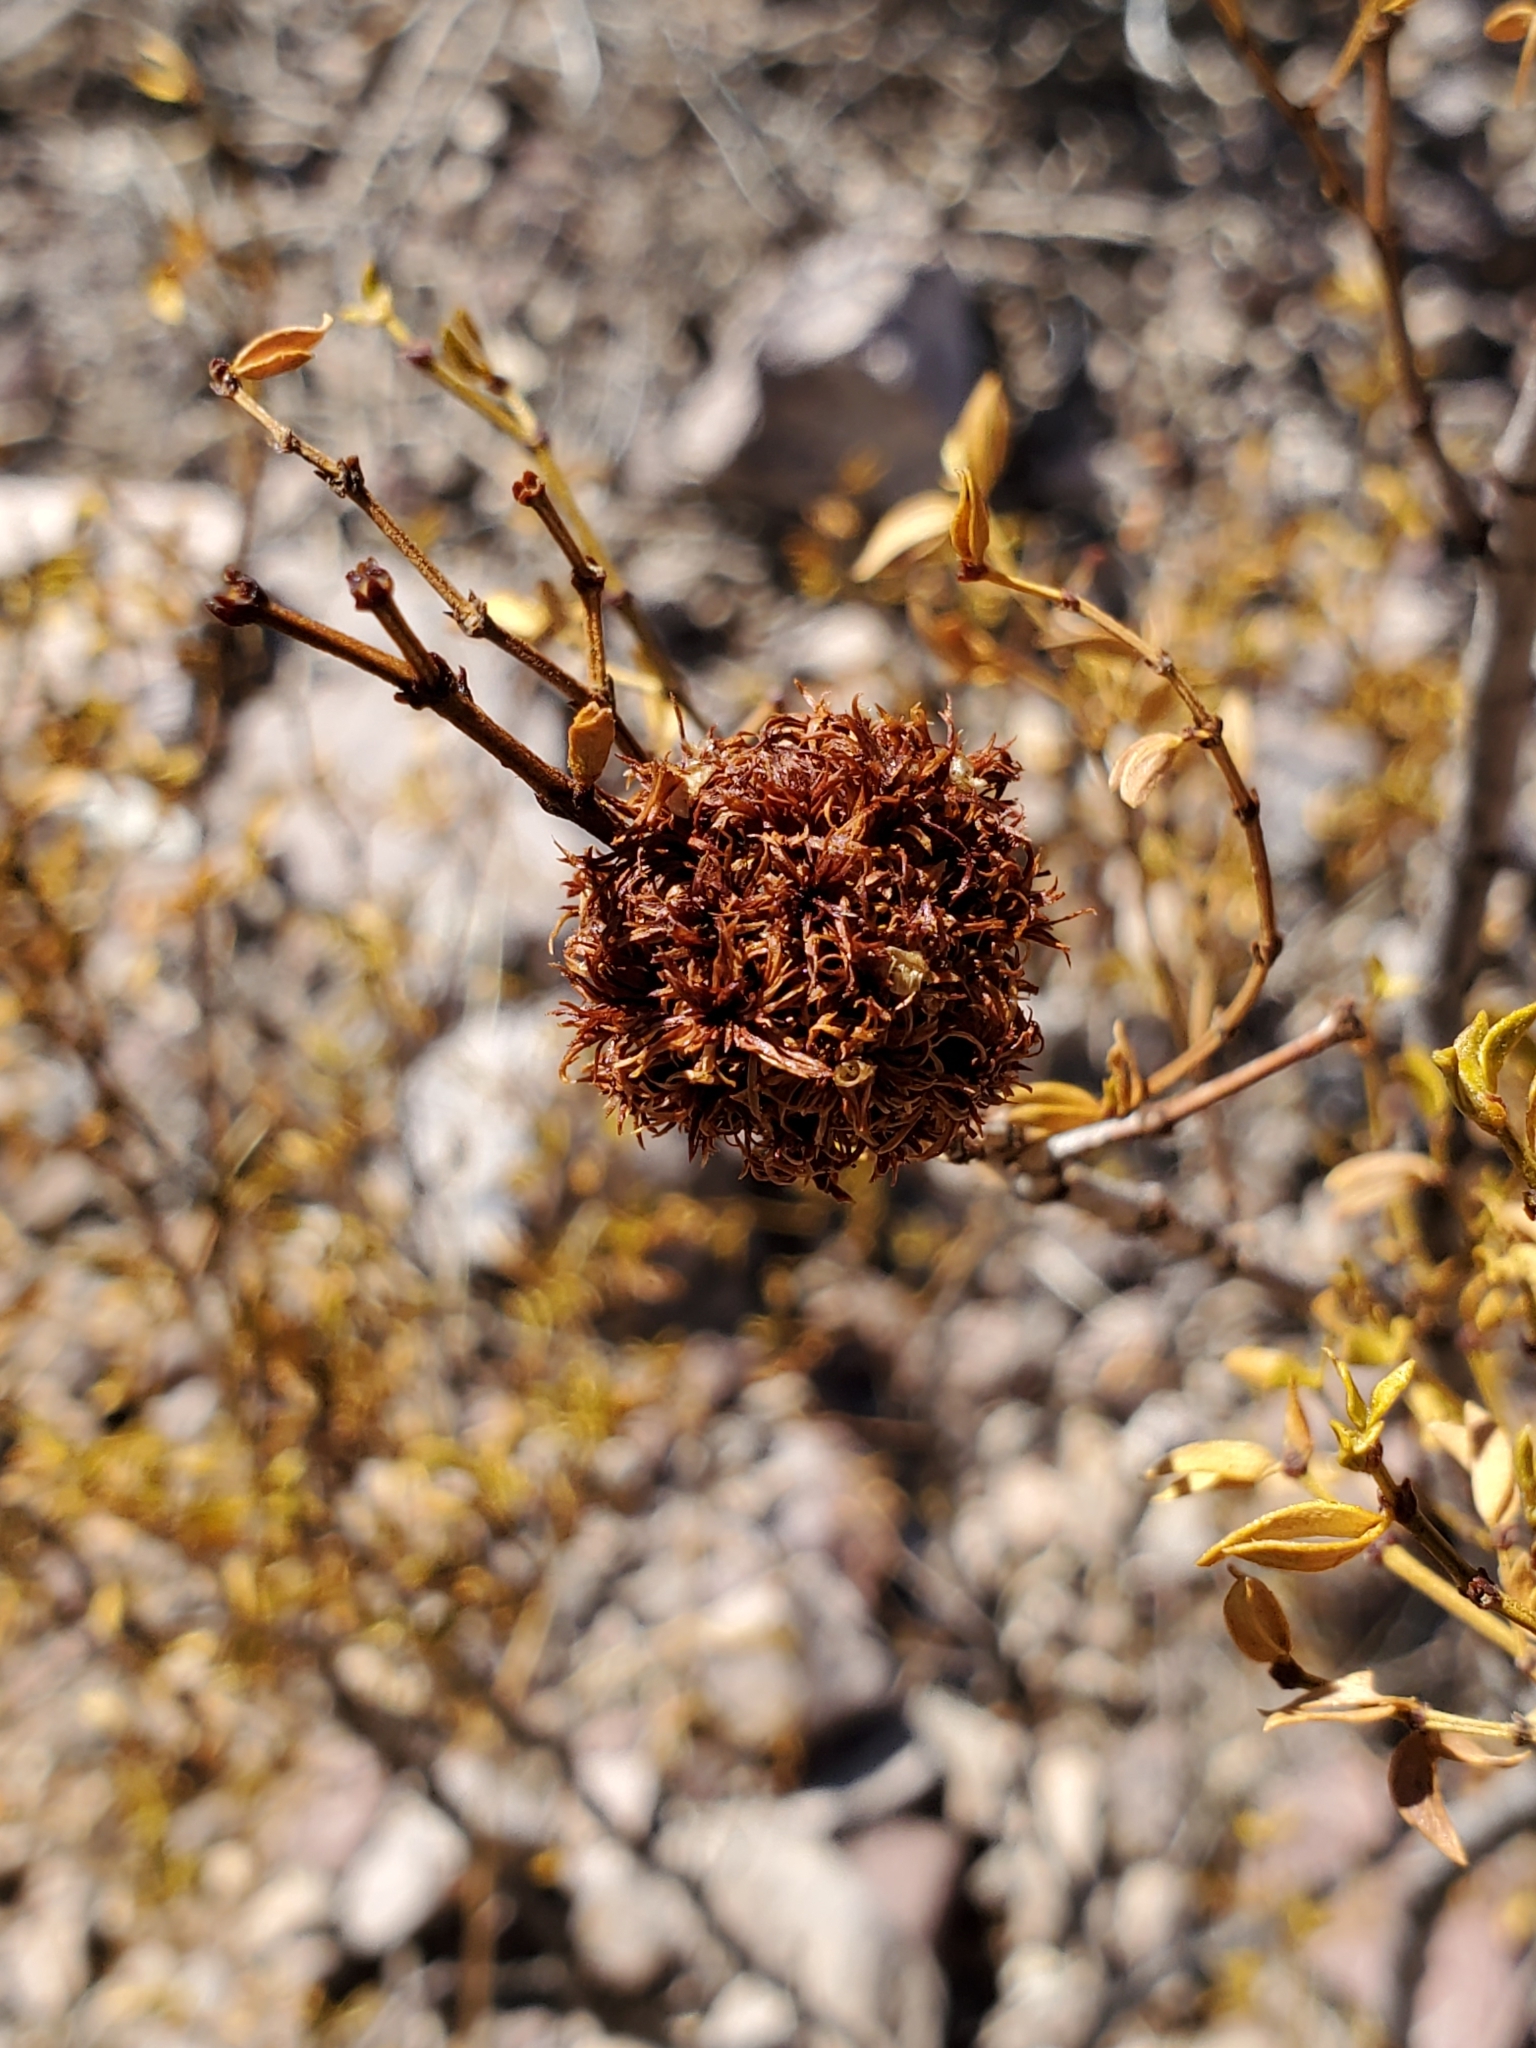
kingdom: Animalia
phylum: Arthropoda
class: Insecta
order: Diptera
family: Cecidomyiidae
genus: Asphondylia
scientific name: Asphondylia auripila
